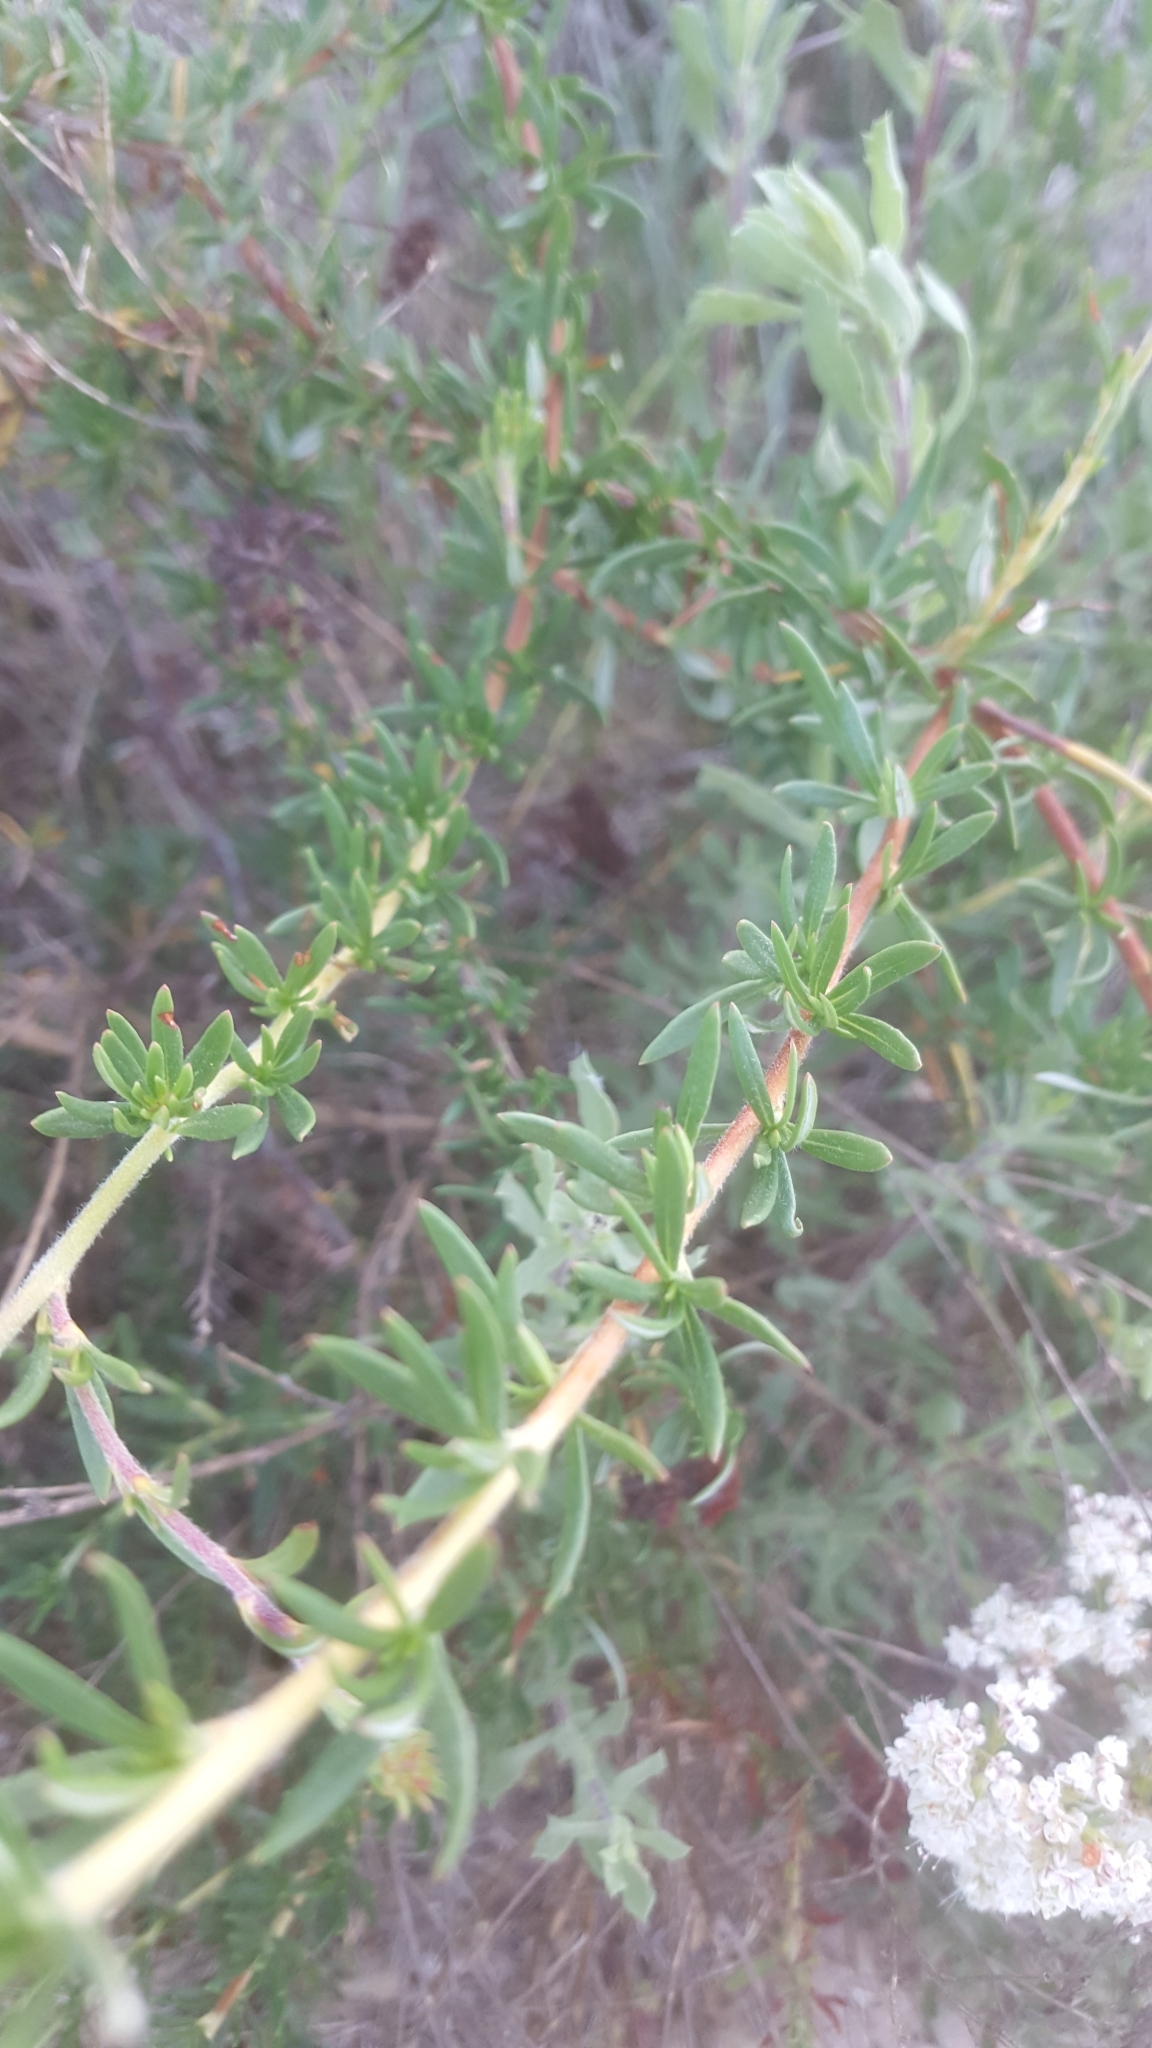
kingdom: Plantae
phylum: Tracheophyta
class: Magnoliopsida
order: Caryophyllales
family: Polygonaceae
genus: Eriogonum
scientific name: Eriogonum fasciculatum
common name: California wild buckwheat
